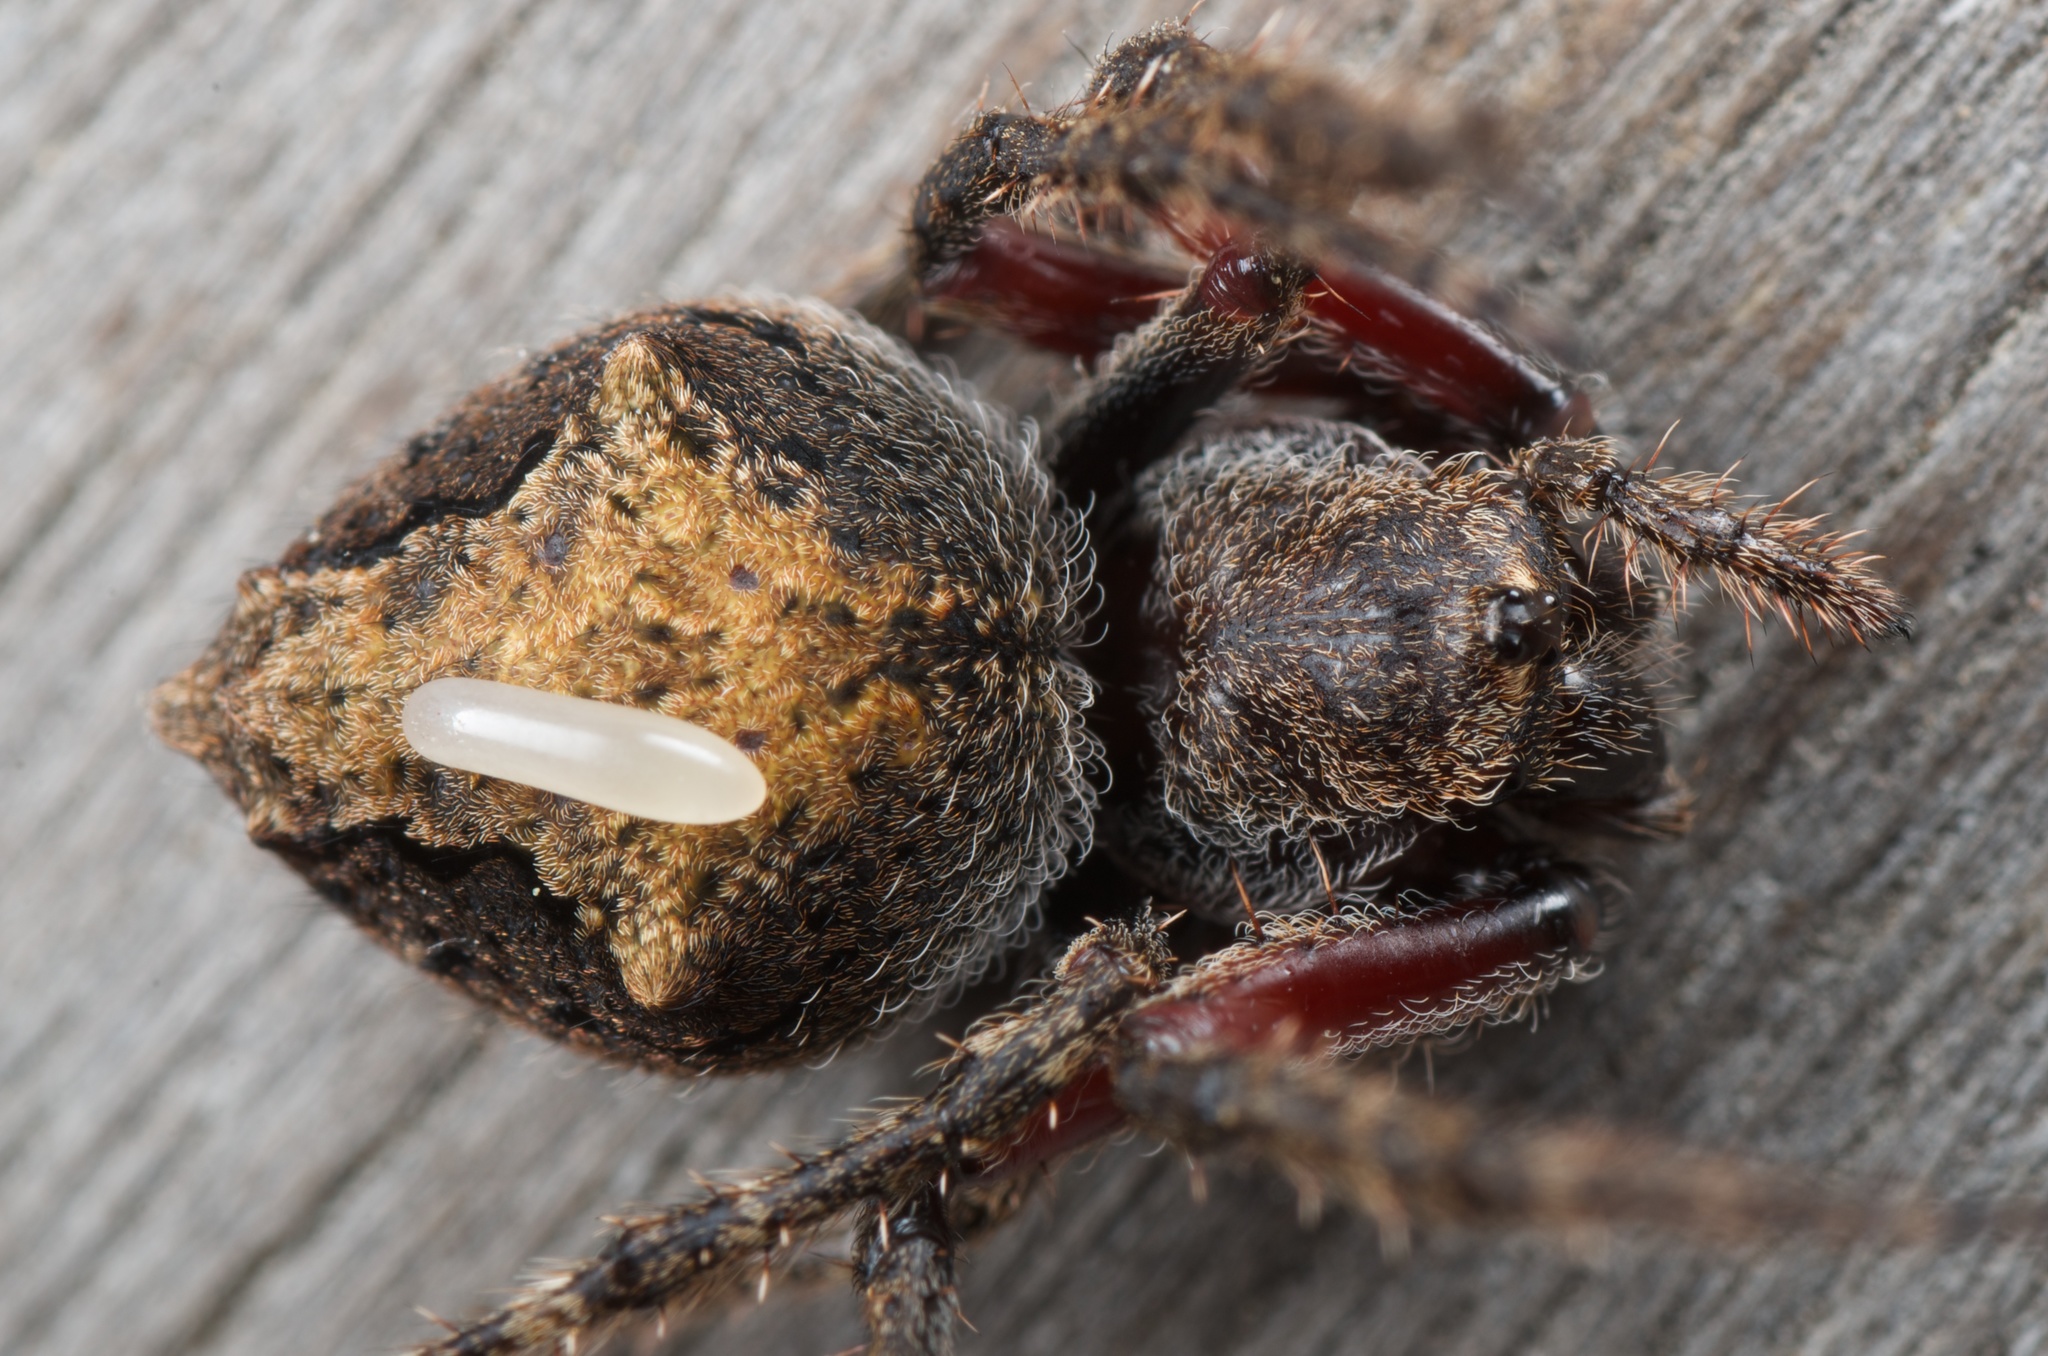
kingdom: Animalia
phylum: Arthropoda
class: Arachnida
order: Araneae
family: Araneidae
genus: Eriophora
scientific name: Eriophora pustulosa
